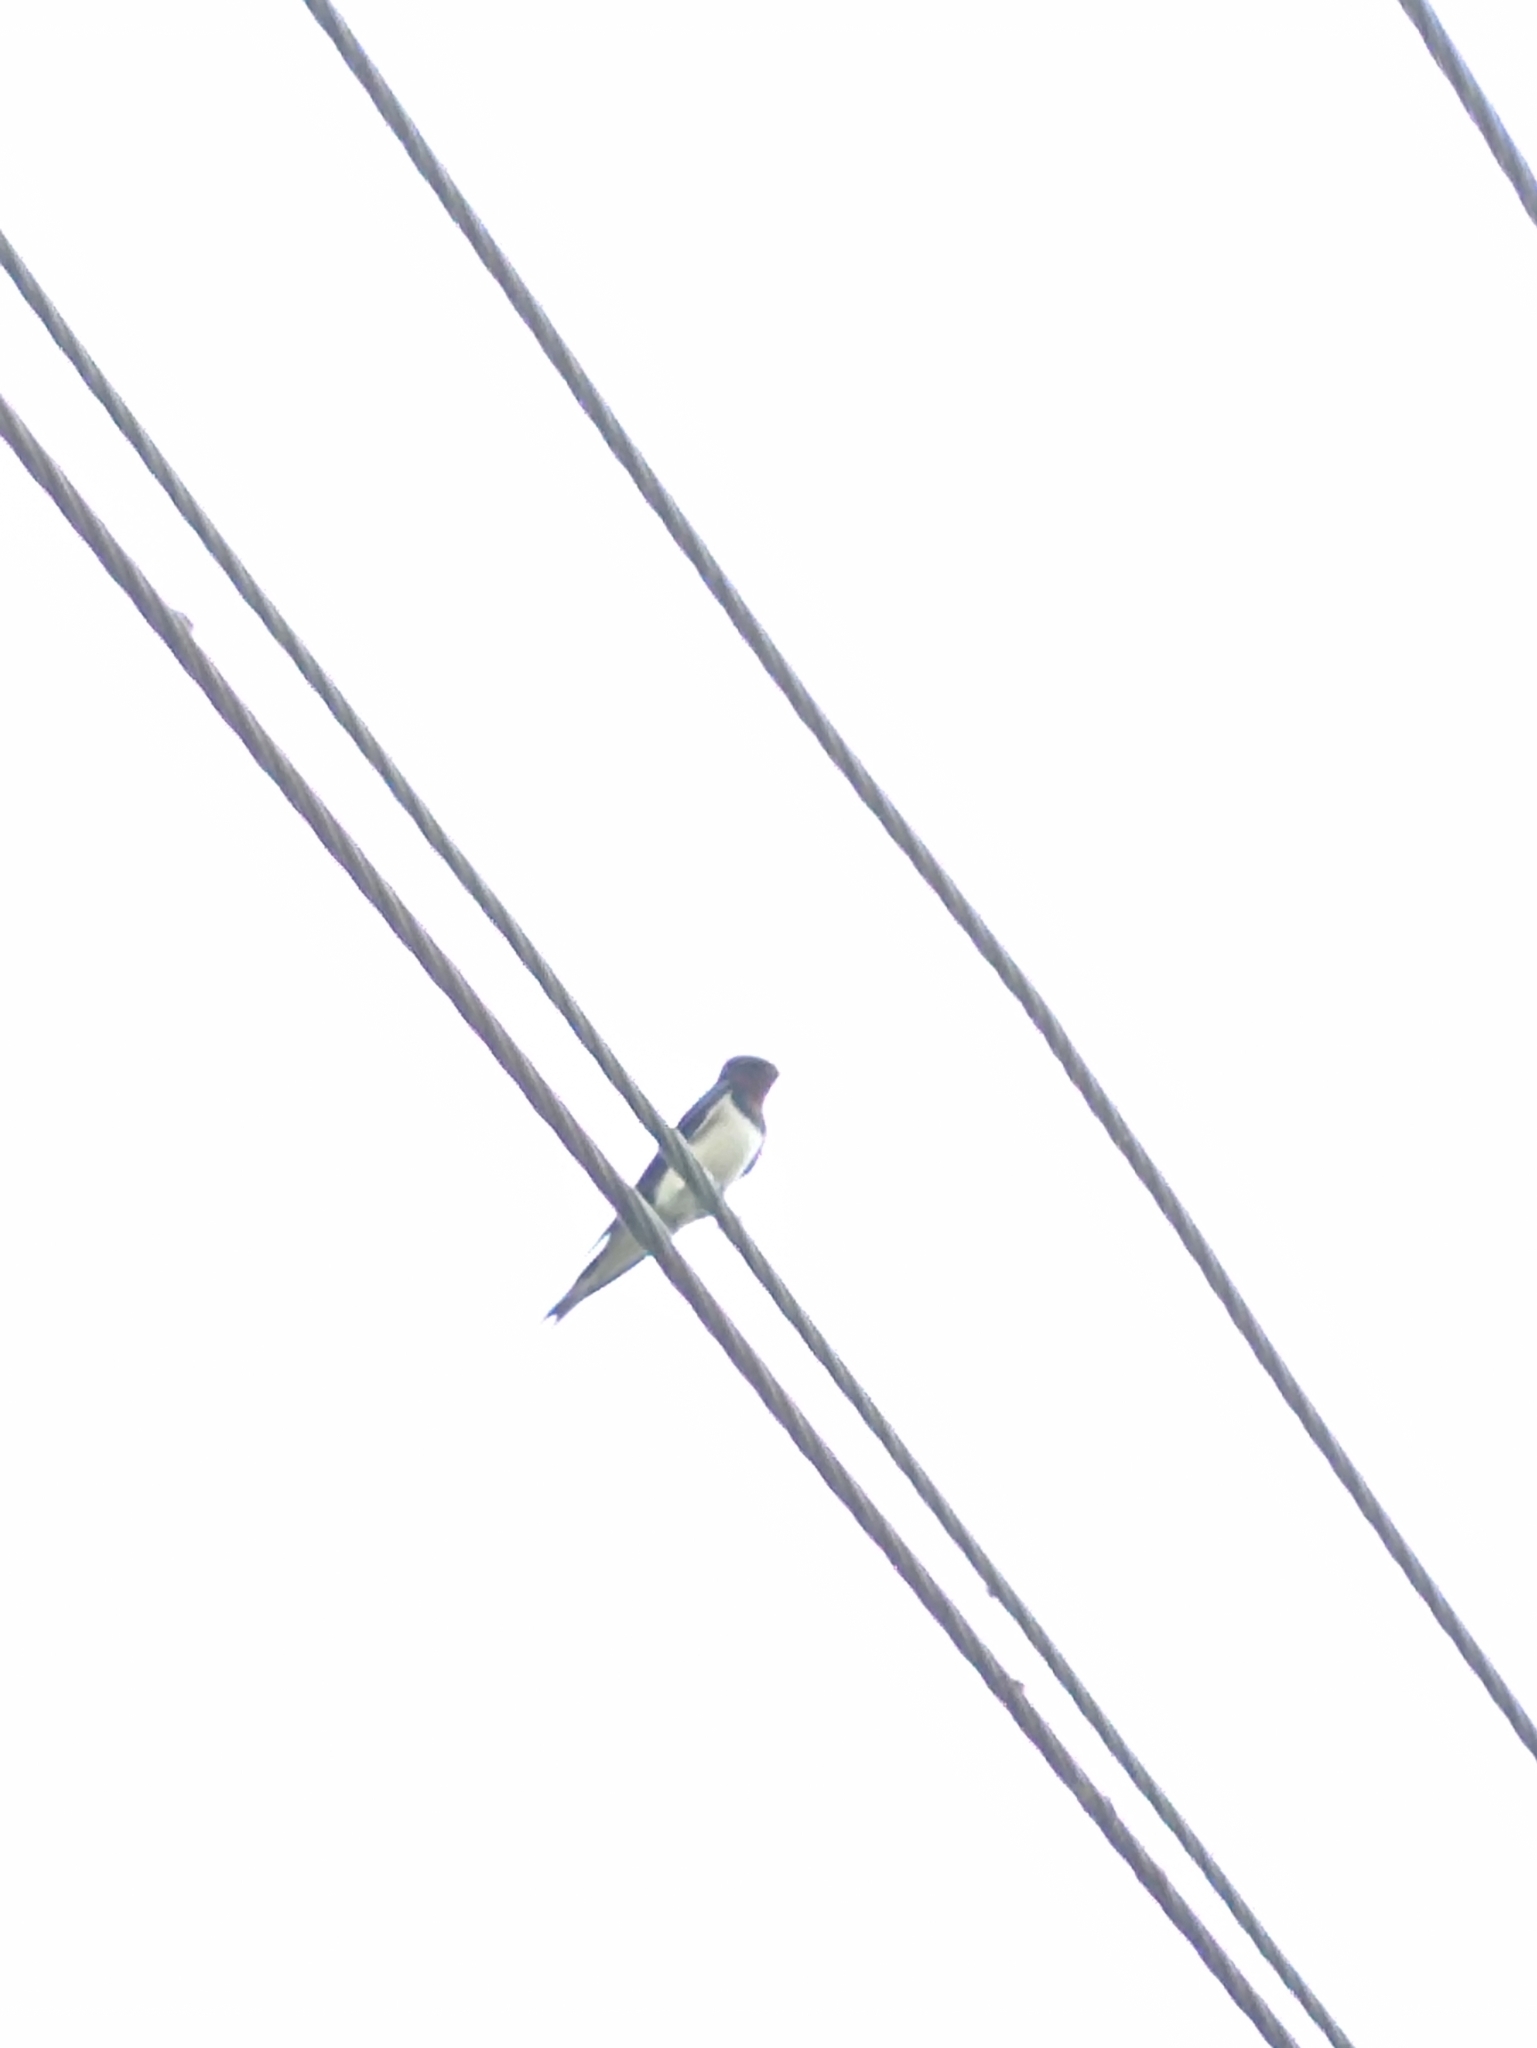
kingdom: Animalia
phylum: Chordata
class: Aves
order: Passeriformes
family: Hirundinidae
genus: Hirundo
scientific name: Hirundo rustica
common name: Barn swallow
